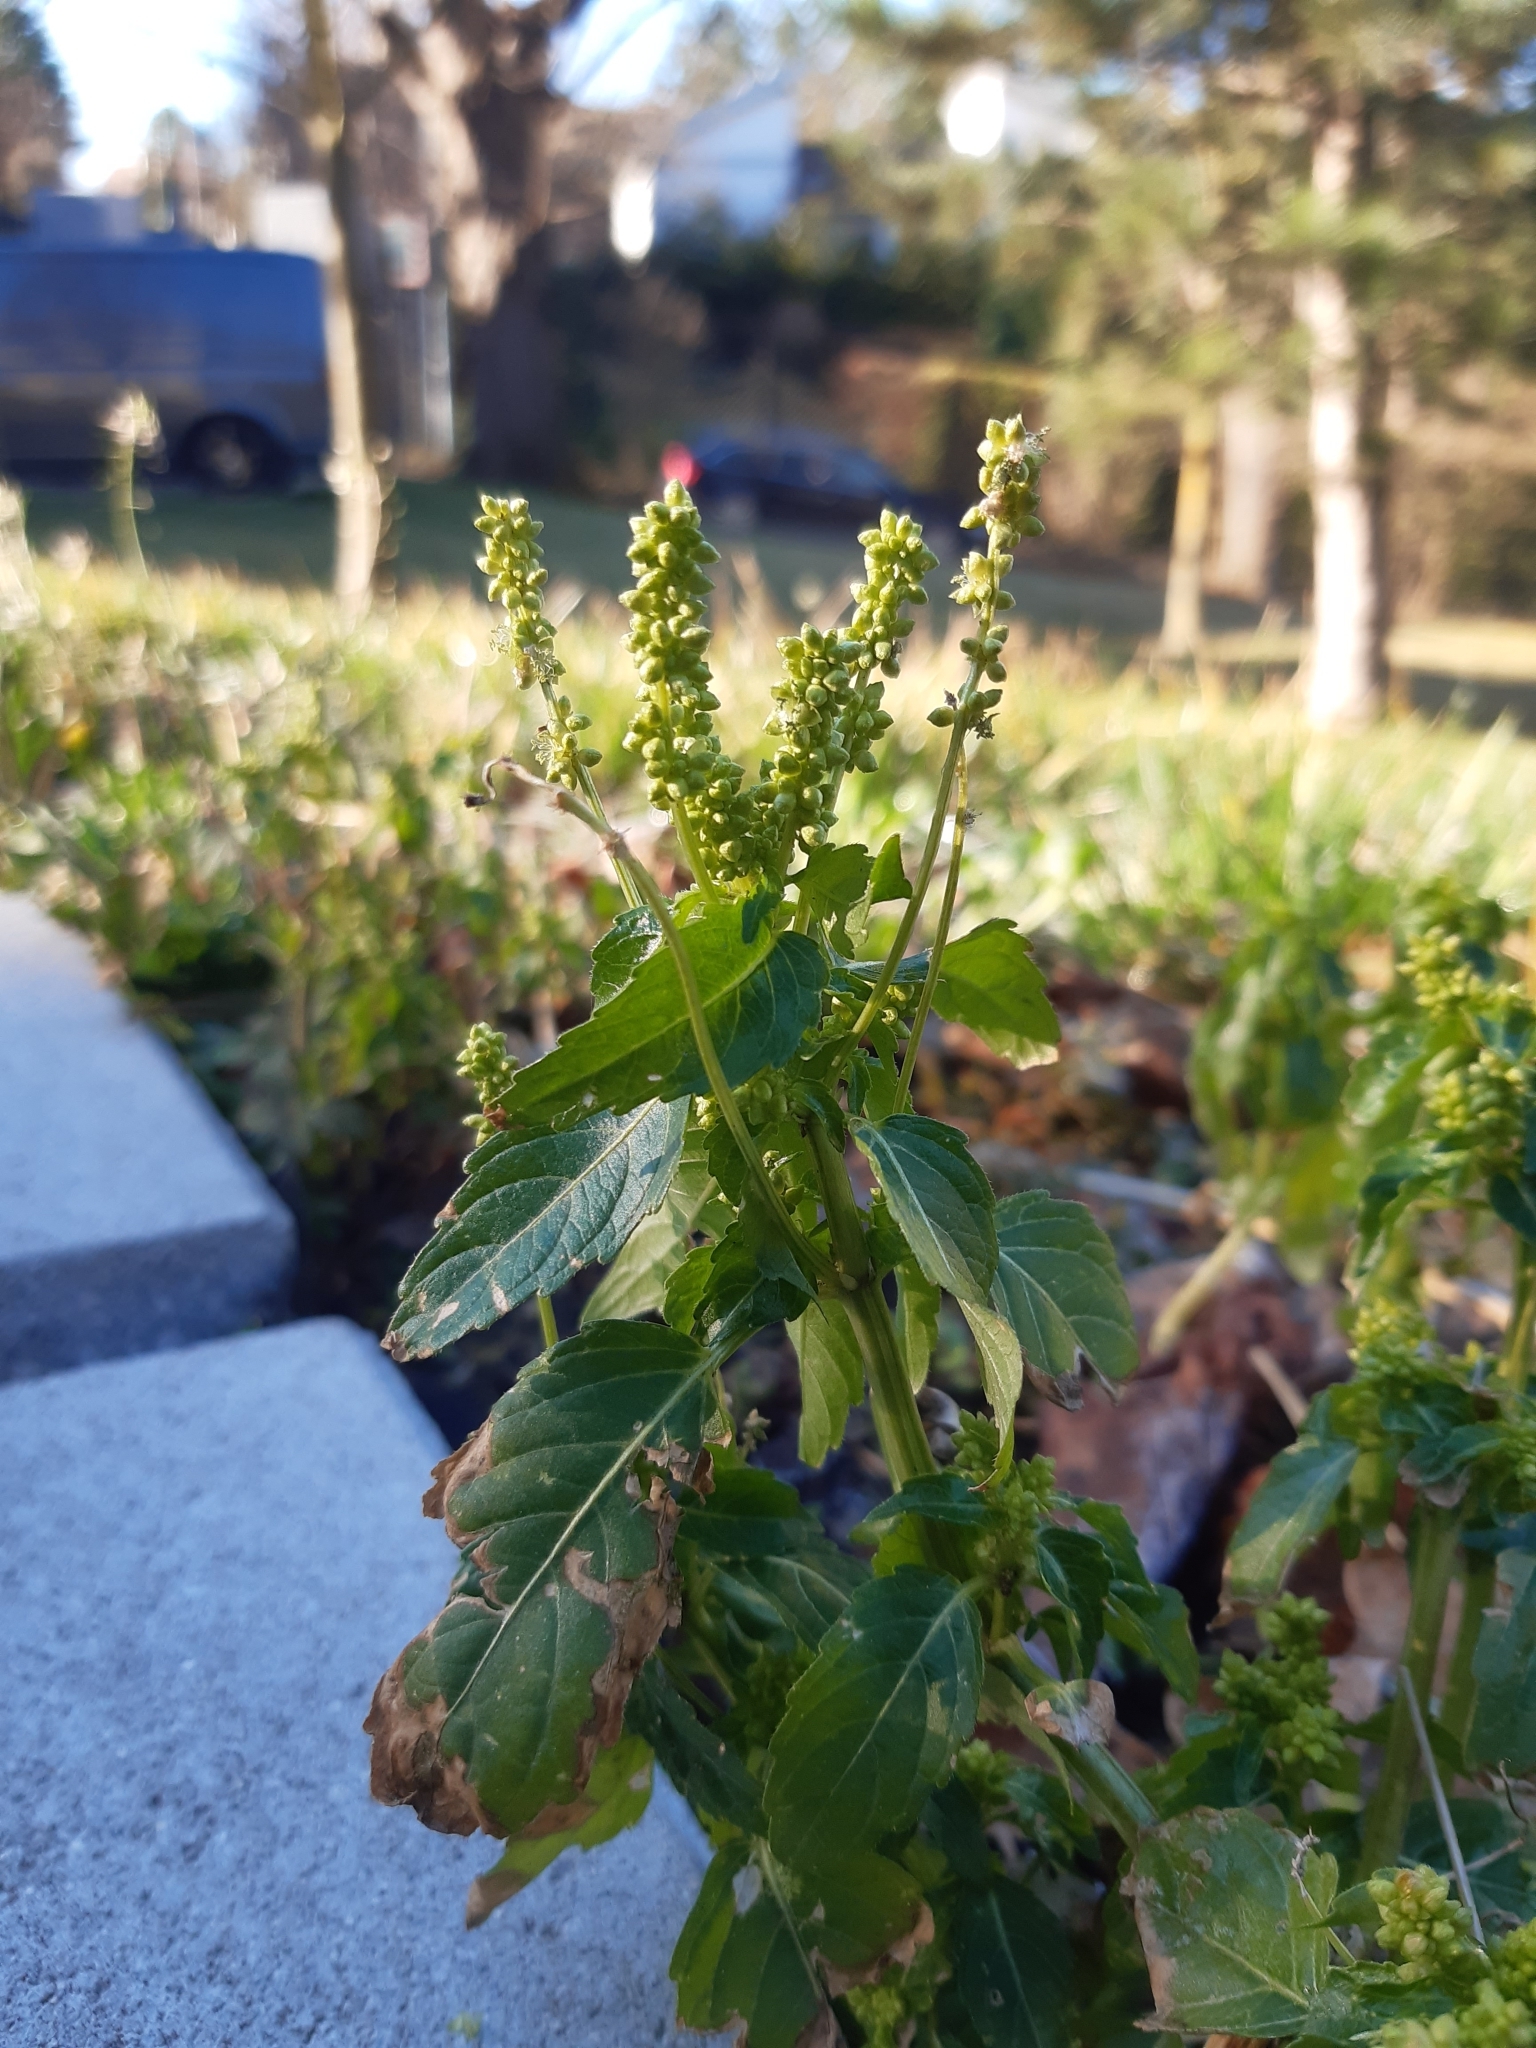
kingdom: Plantae
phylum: Tracheophyta
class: Magnoliopsida
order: Malpighiales
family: Euphorbiaceae
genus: Mercurialis
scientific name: Mercurialis annua
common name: Annual mercury
